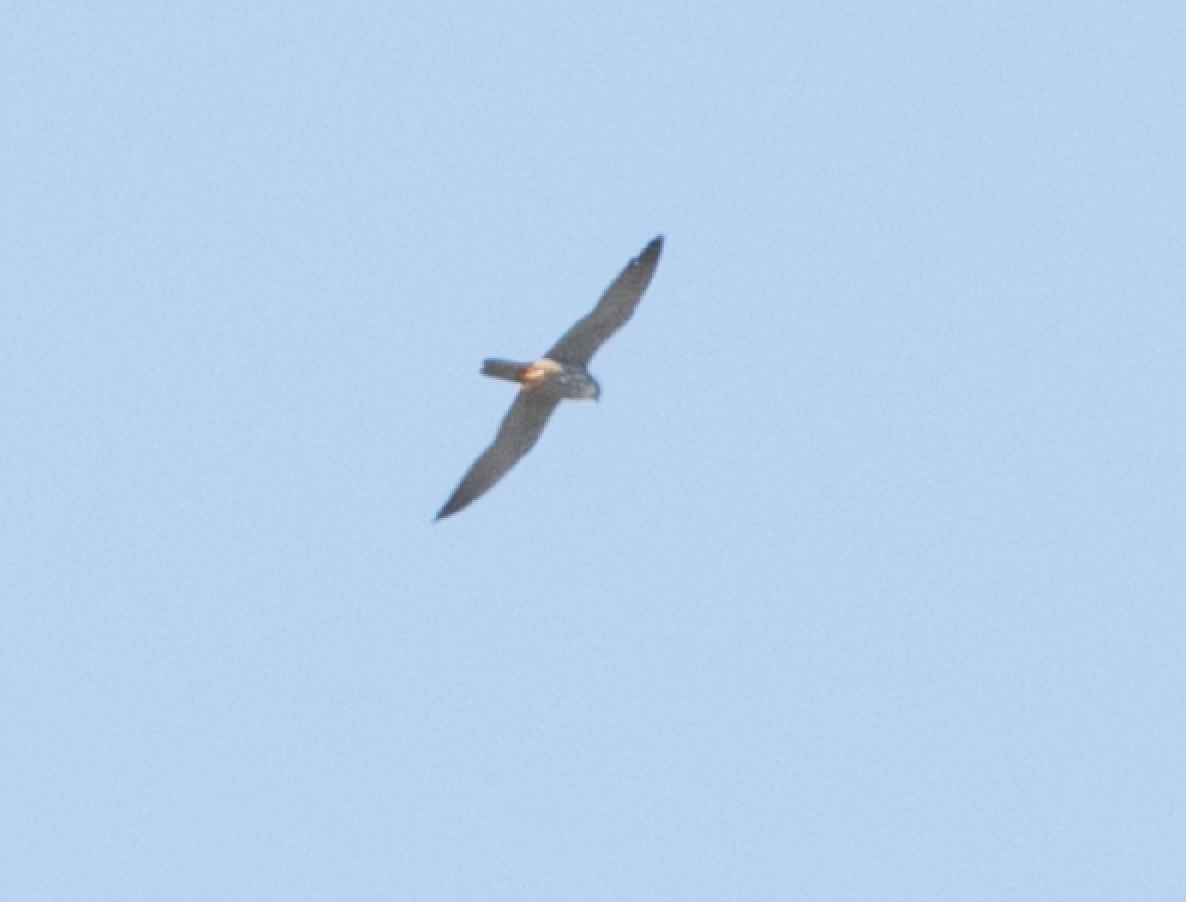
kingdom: Animalia
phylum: Chordata
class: Aves
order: Falconiformes
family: Falconidae
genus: Falco
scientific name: Falco subbuteo
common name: Eurasian hobby
